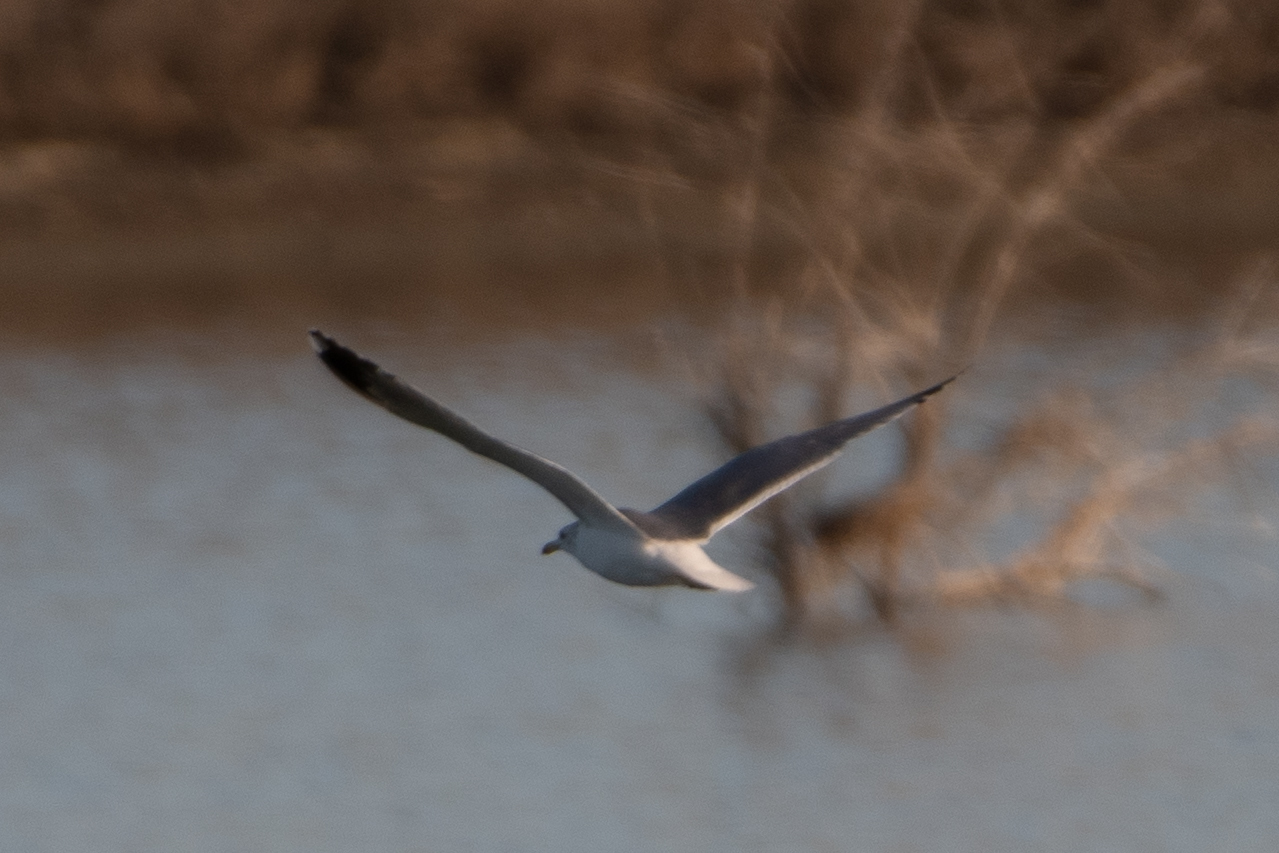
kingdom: Animalia
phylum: Chordata
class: Aves
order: Charadriiformes
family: Laridae
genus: Larus
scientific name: Larus californicus
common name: California gull
